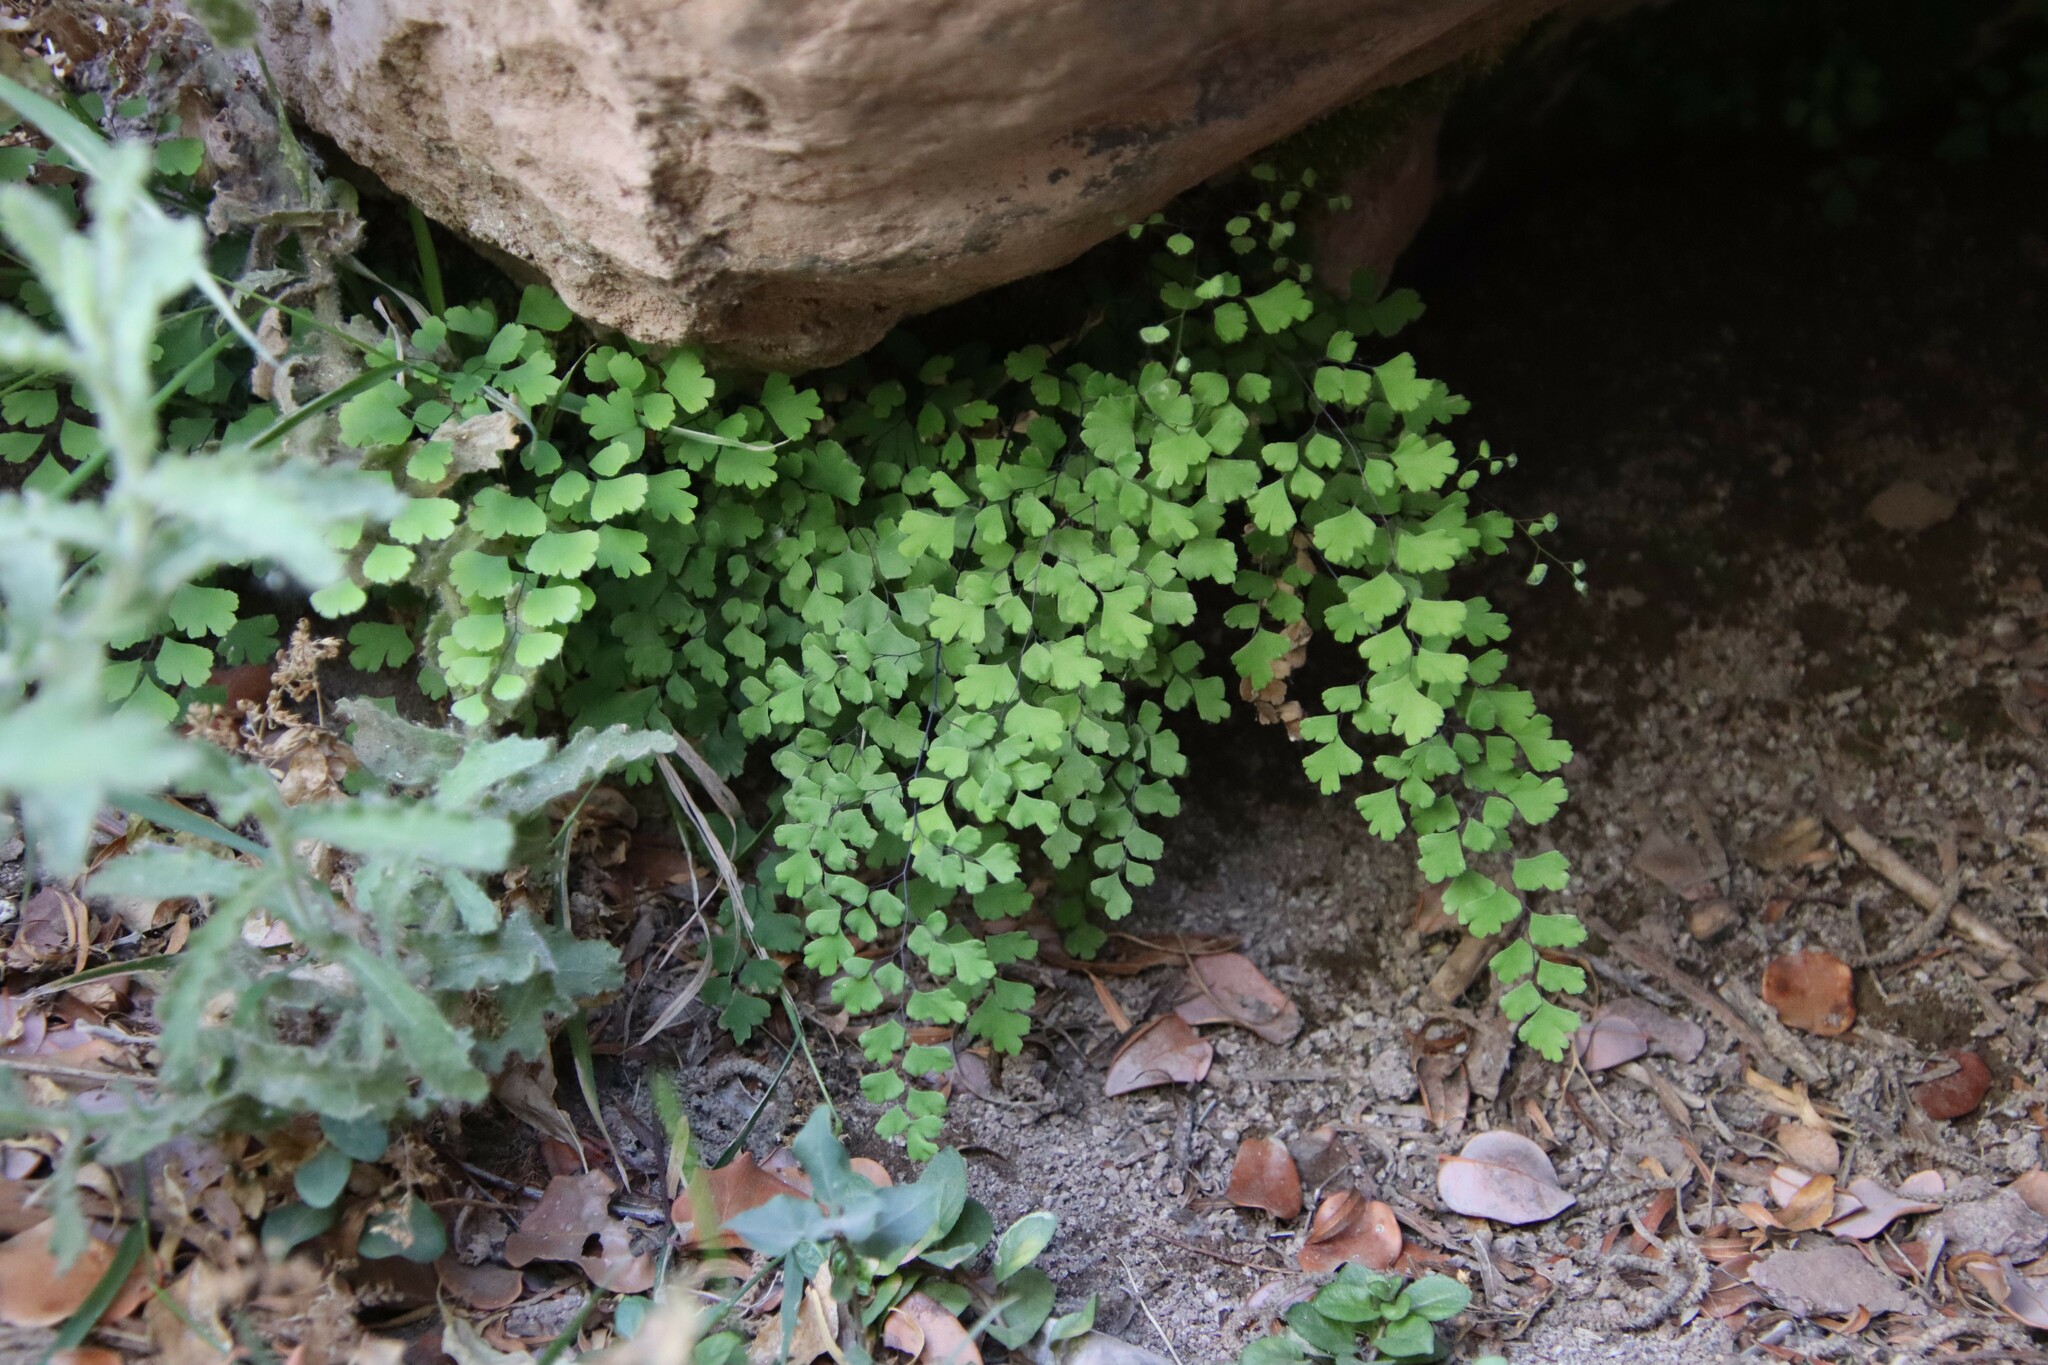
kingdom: Plantae
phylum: Tracheophyta
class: Polypodiopsida
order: Polypodiales
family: Pteridaceae
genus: Adiantum
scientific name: Adiantum capillus-veneris
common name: Maidenhair fern
